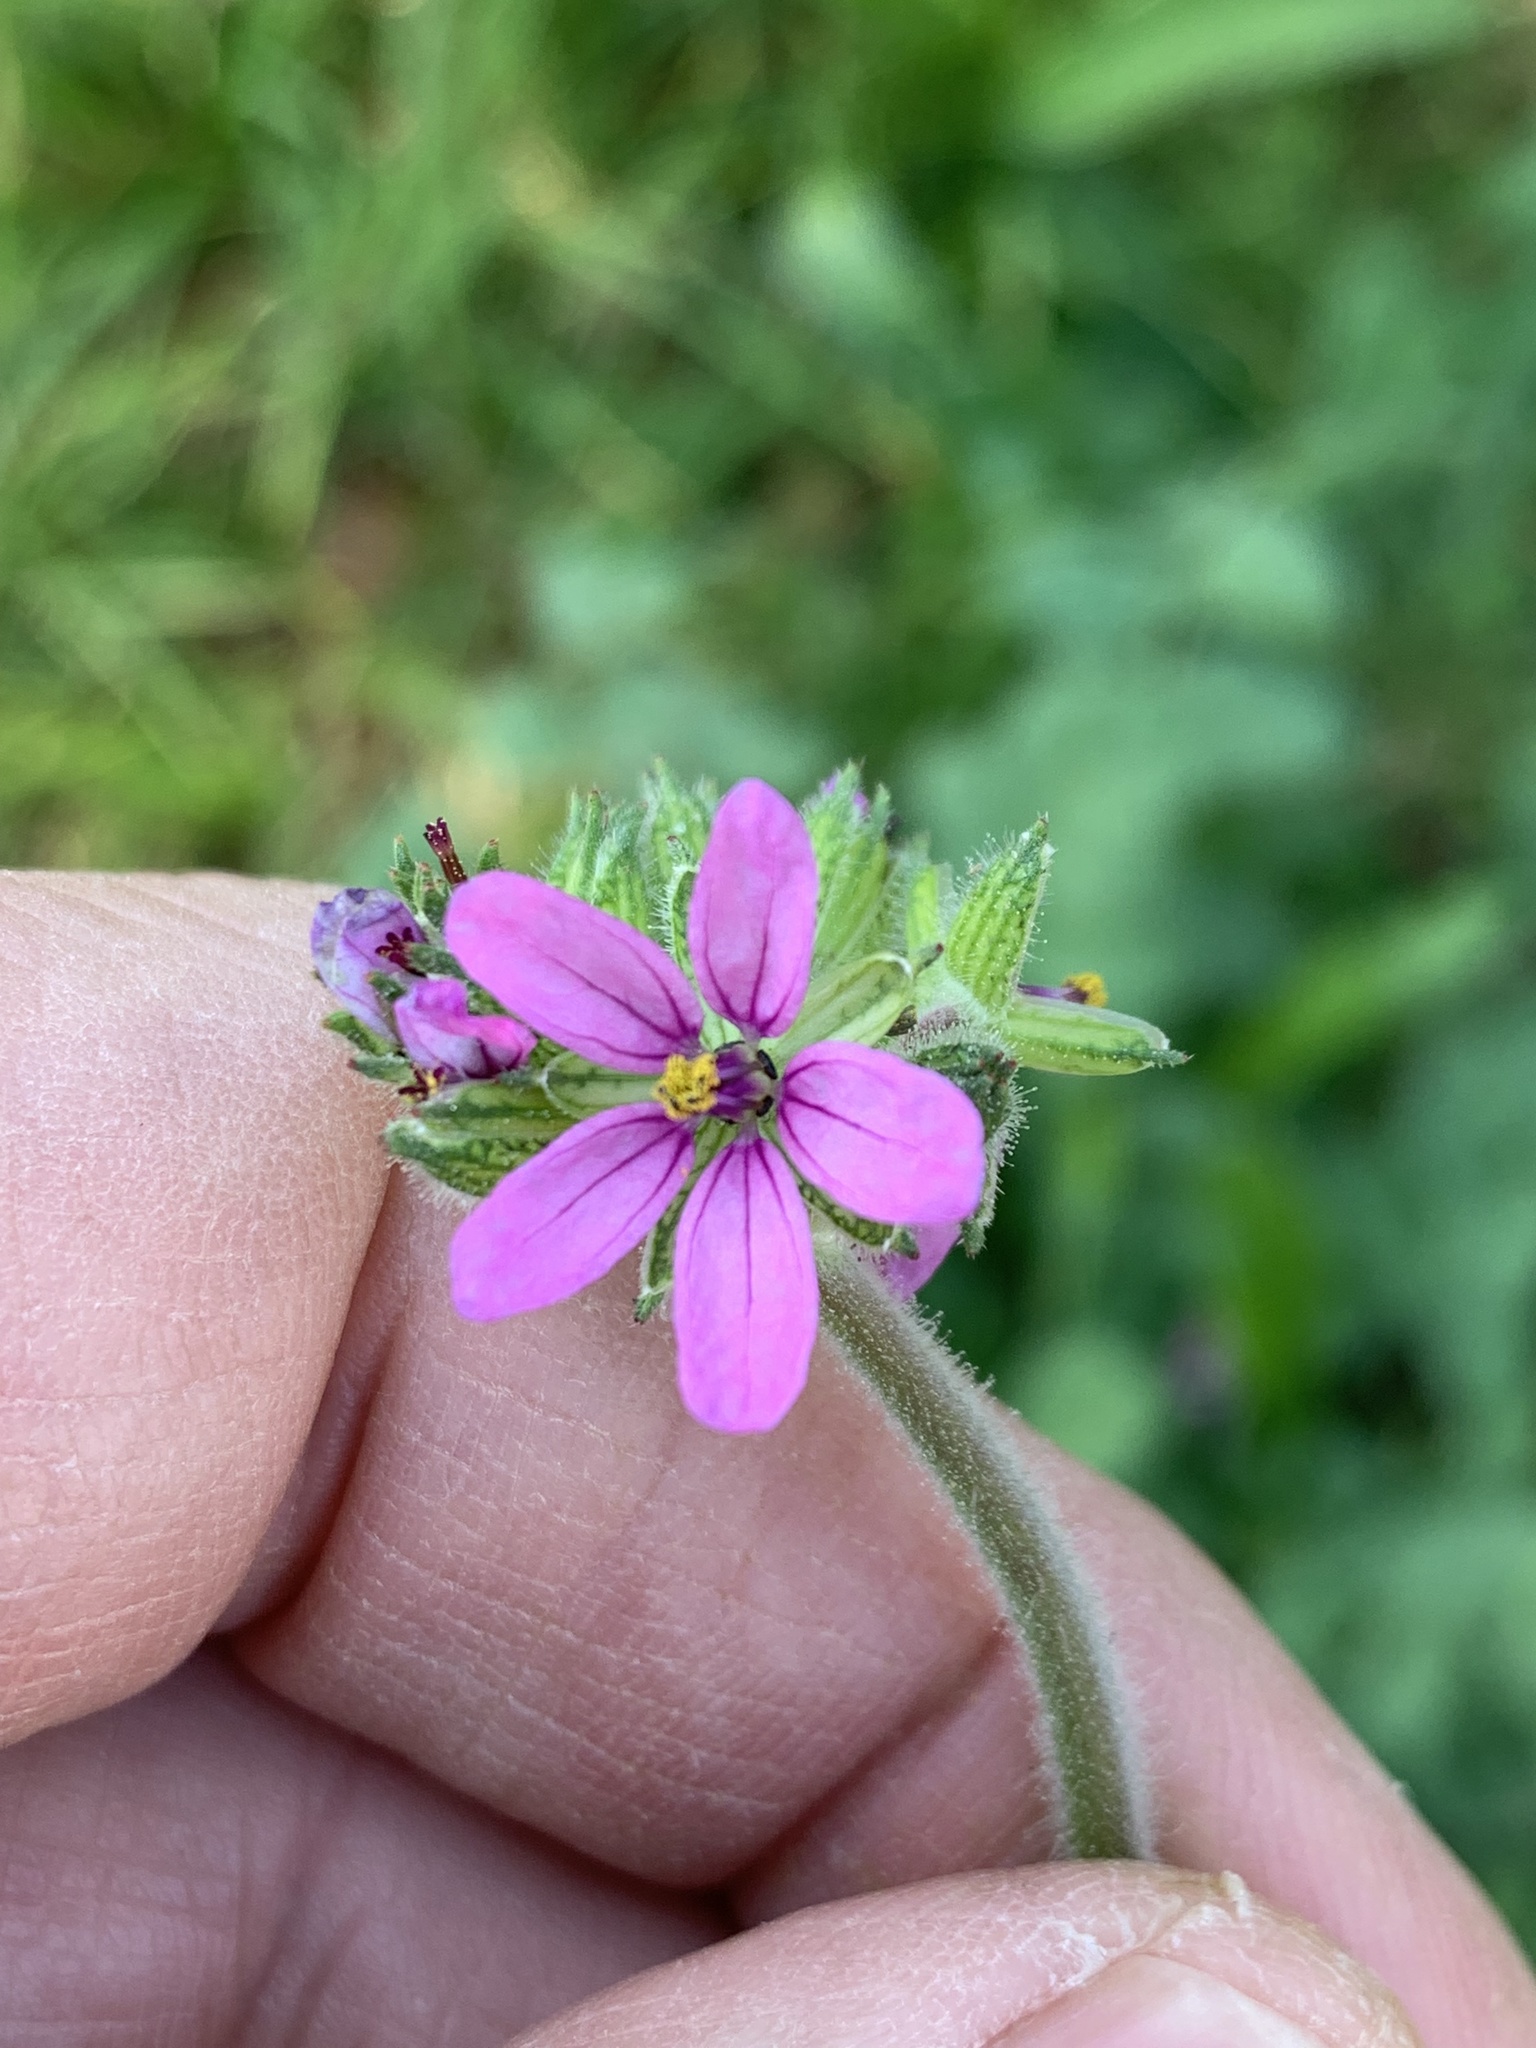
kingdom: Plantae
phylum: Tracheophyta
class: Magnoliopsida
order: Geraniales
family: Geraniaceae
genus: Erodium
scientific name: Erodium moschatum
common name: Musk stork's-bill
